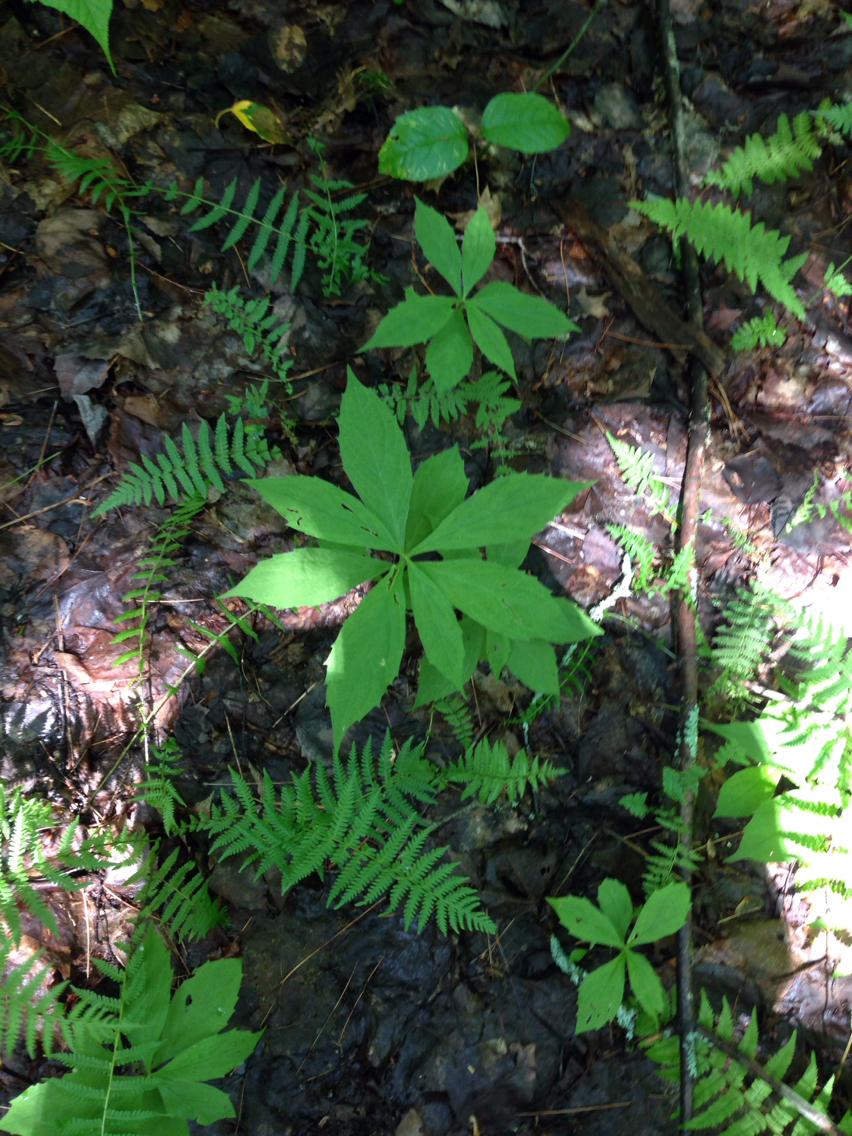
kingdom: Plantae
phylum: Tracheophyta
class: Magnoliopsida
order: Asterales
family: Asteraceae
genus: Oclemena
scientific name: Oclemena acuminata
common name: Mountain aster
